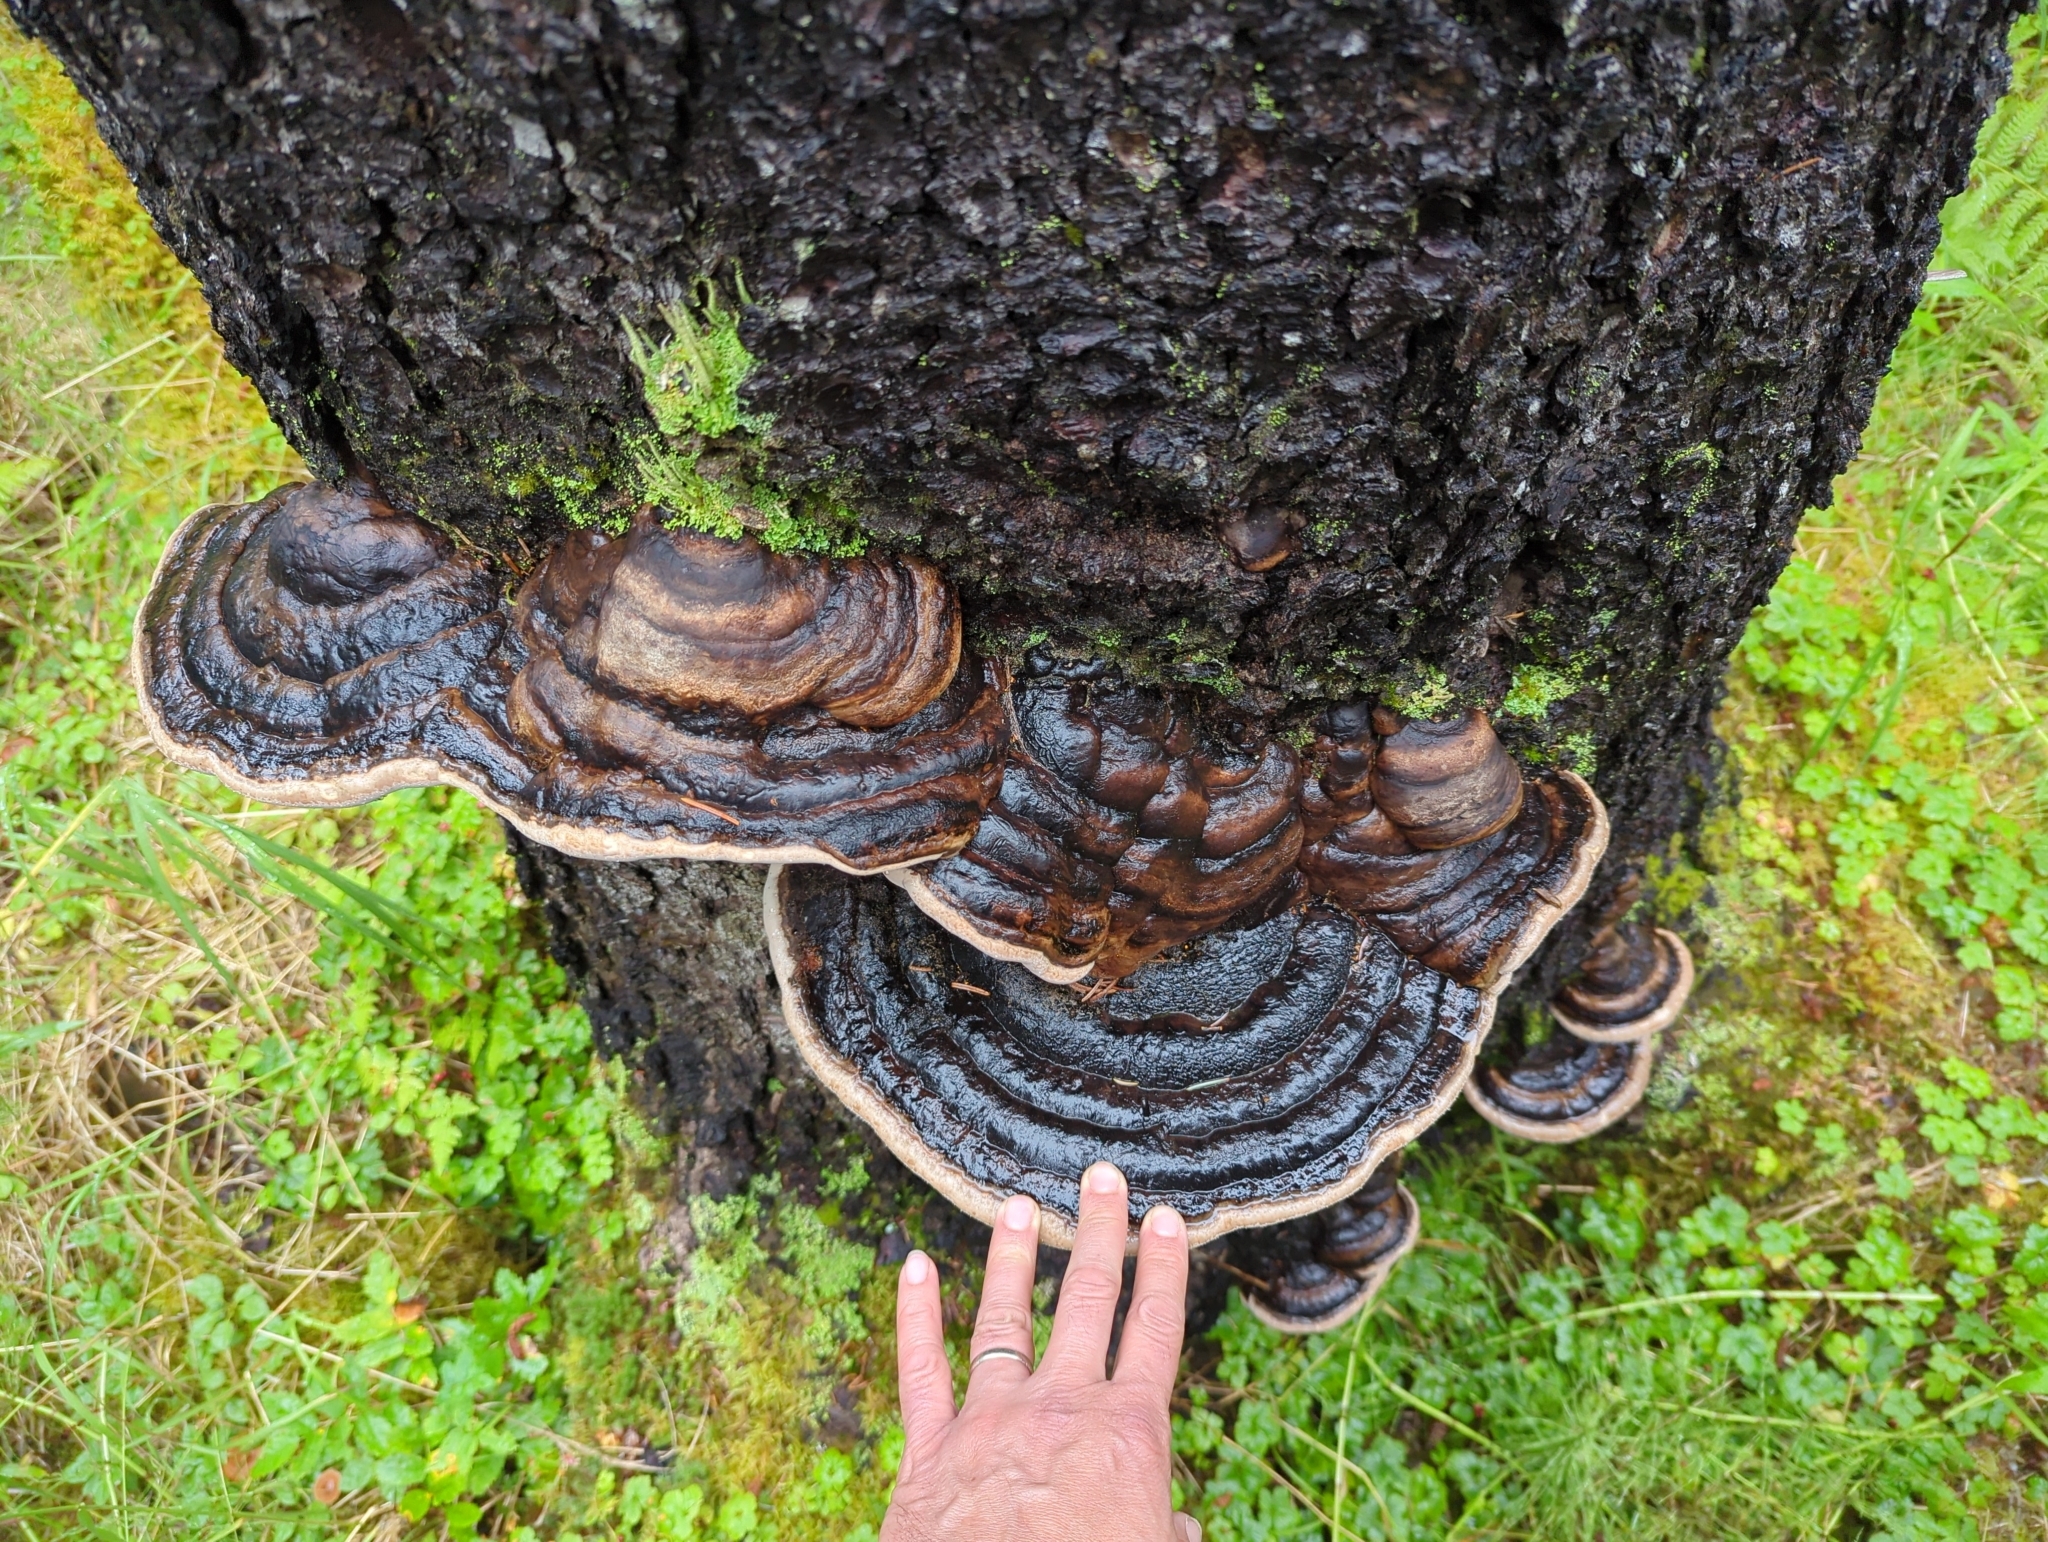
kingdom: Fungi
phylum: Basidiomycota
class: Agaricomycetes
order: Polyporales
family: Fomitopsidaceae
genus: Fomitopsis
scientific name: Fomitopsis ochracea
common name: American brown fomitopsis
